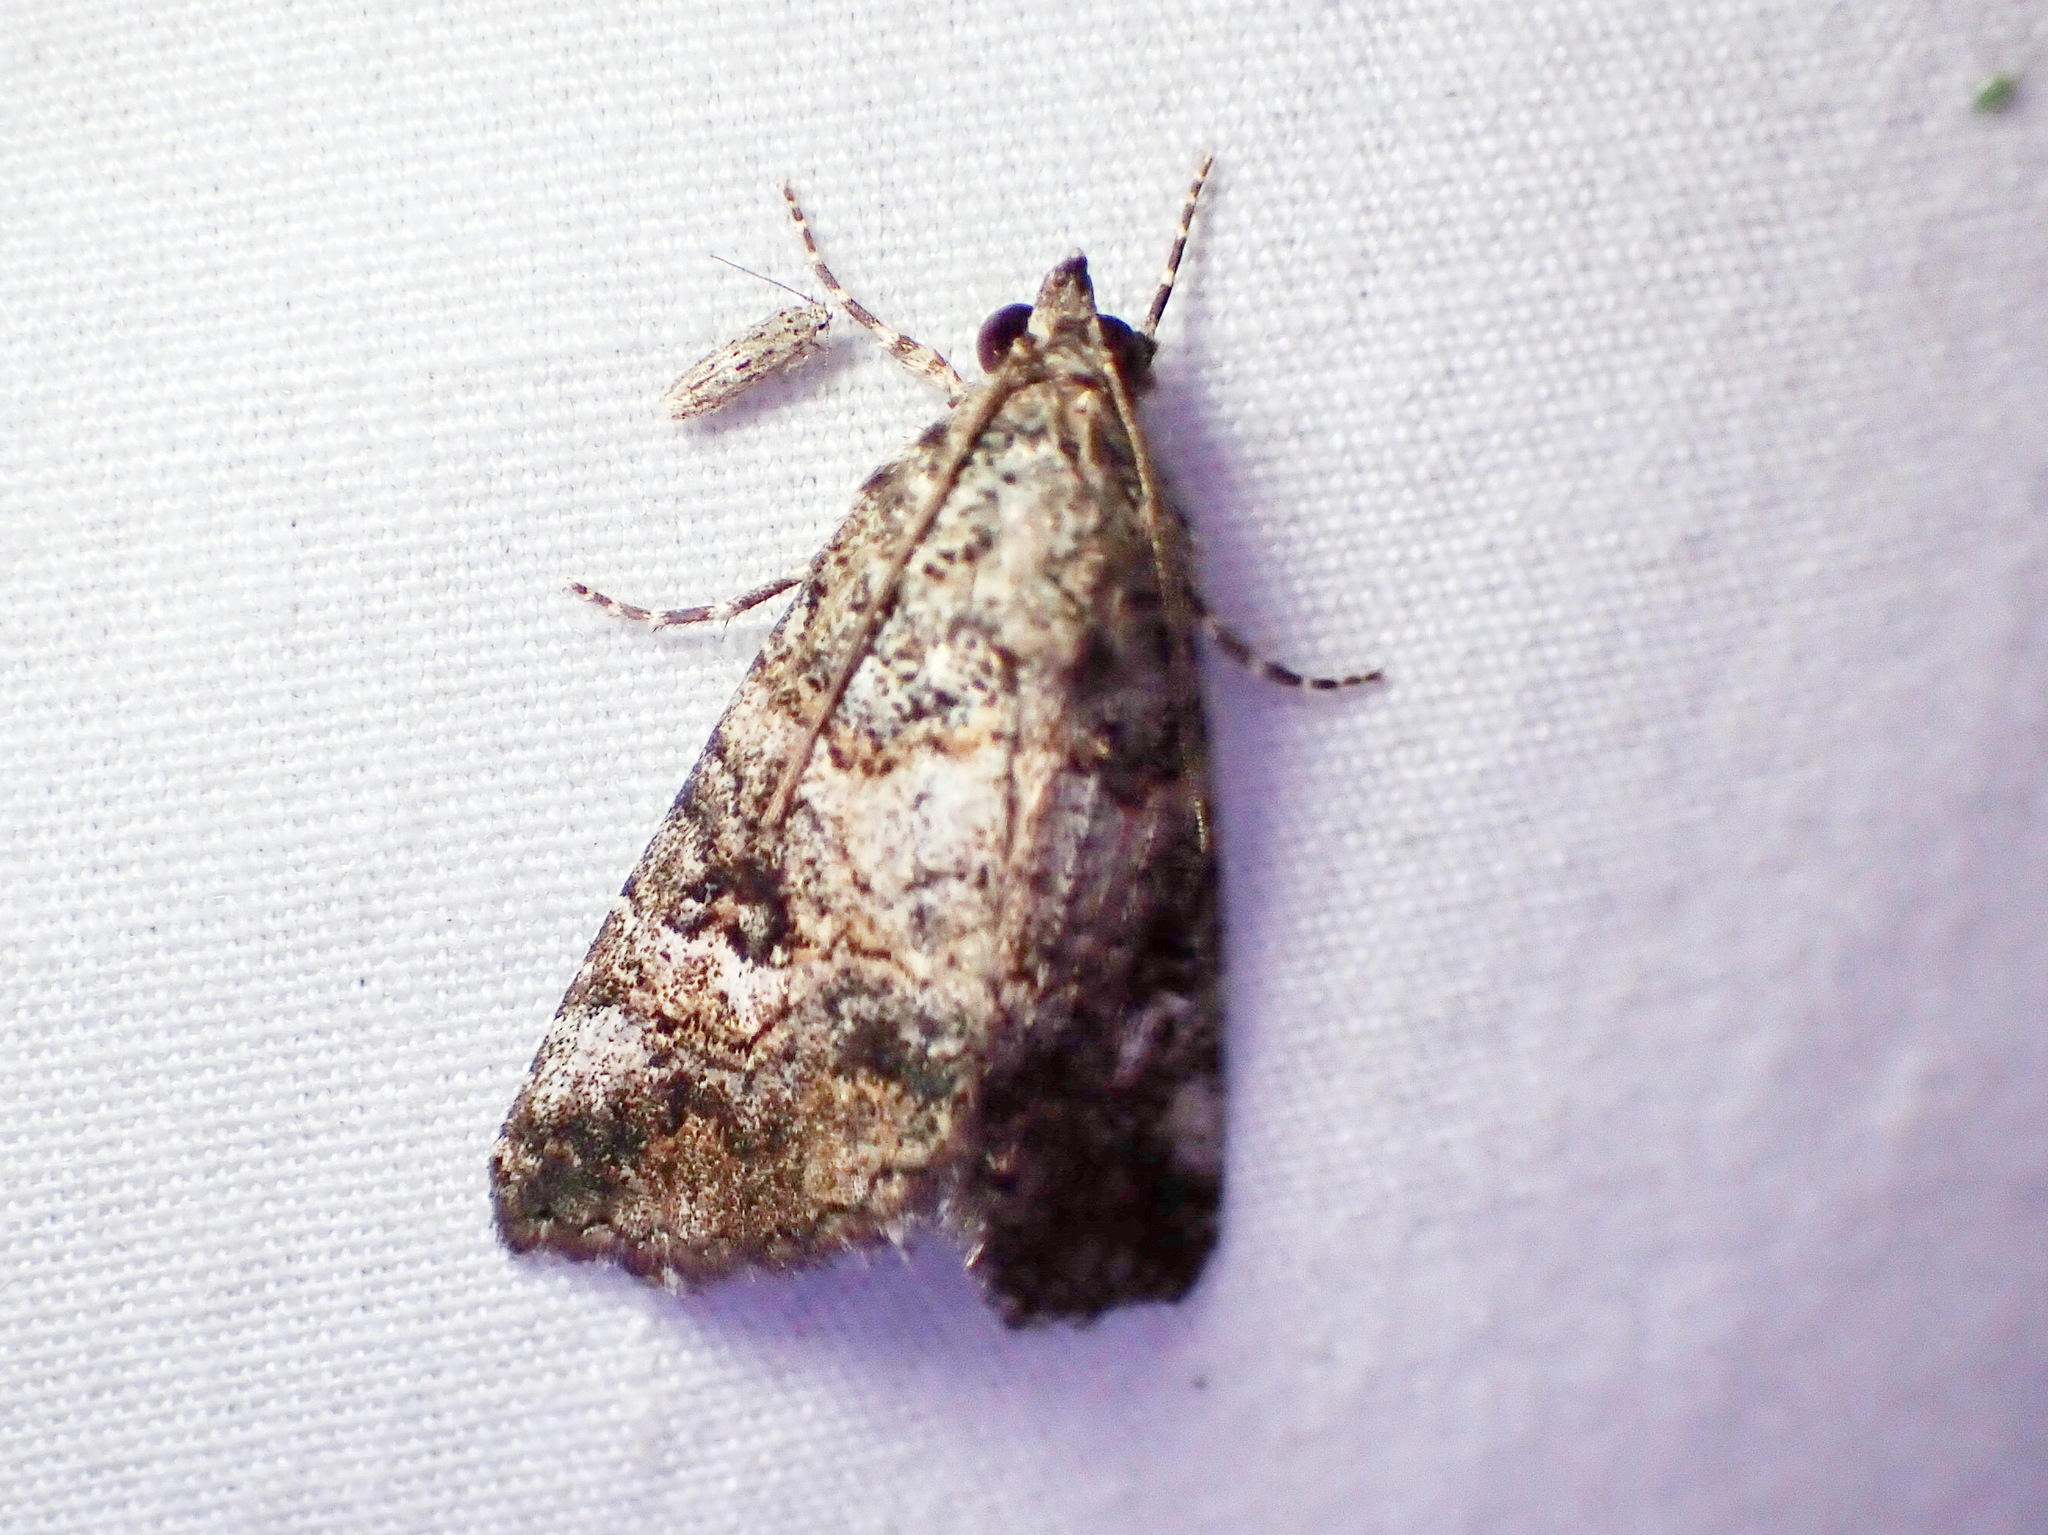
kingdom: Animalia
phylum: Arthropoda
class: Insecta
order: Lepidoptera
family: Erebidae
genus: Eubolina
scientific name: Eubolina impartialis
